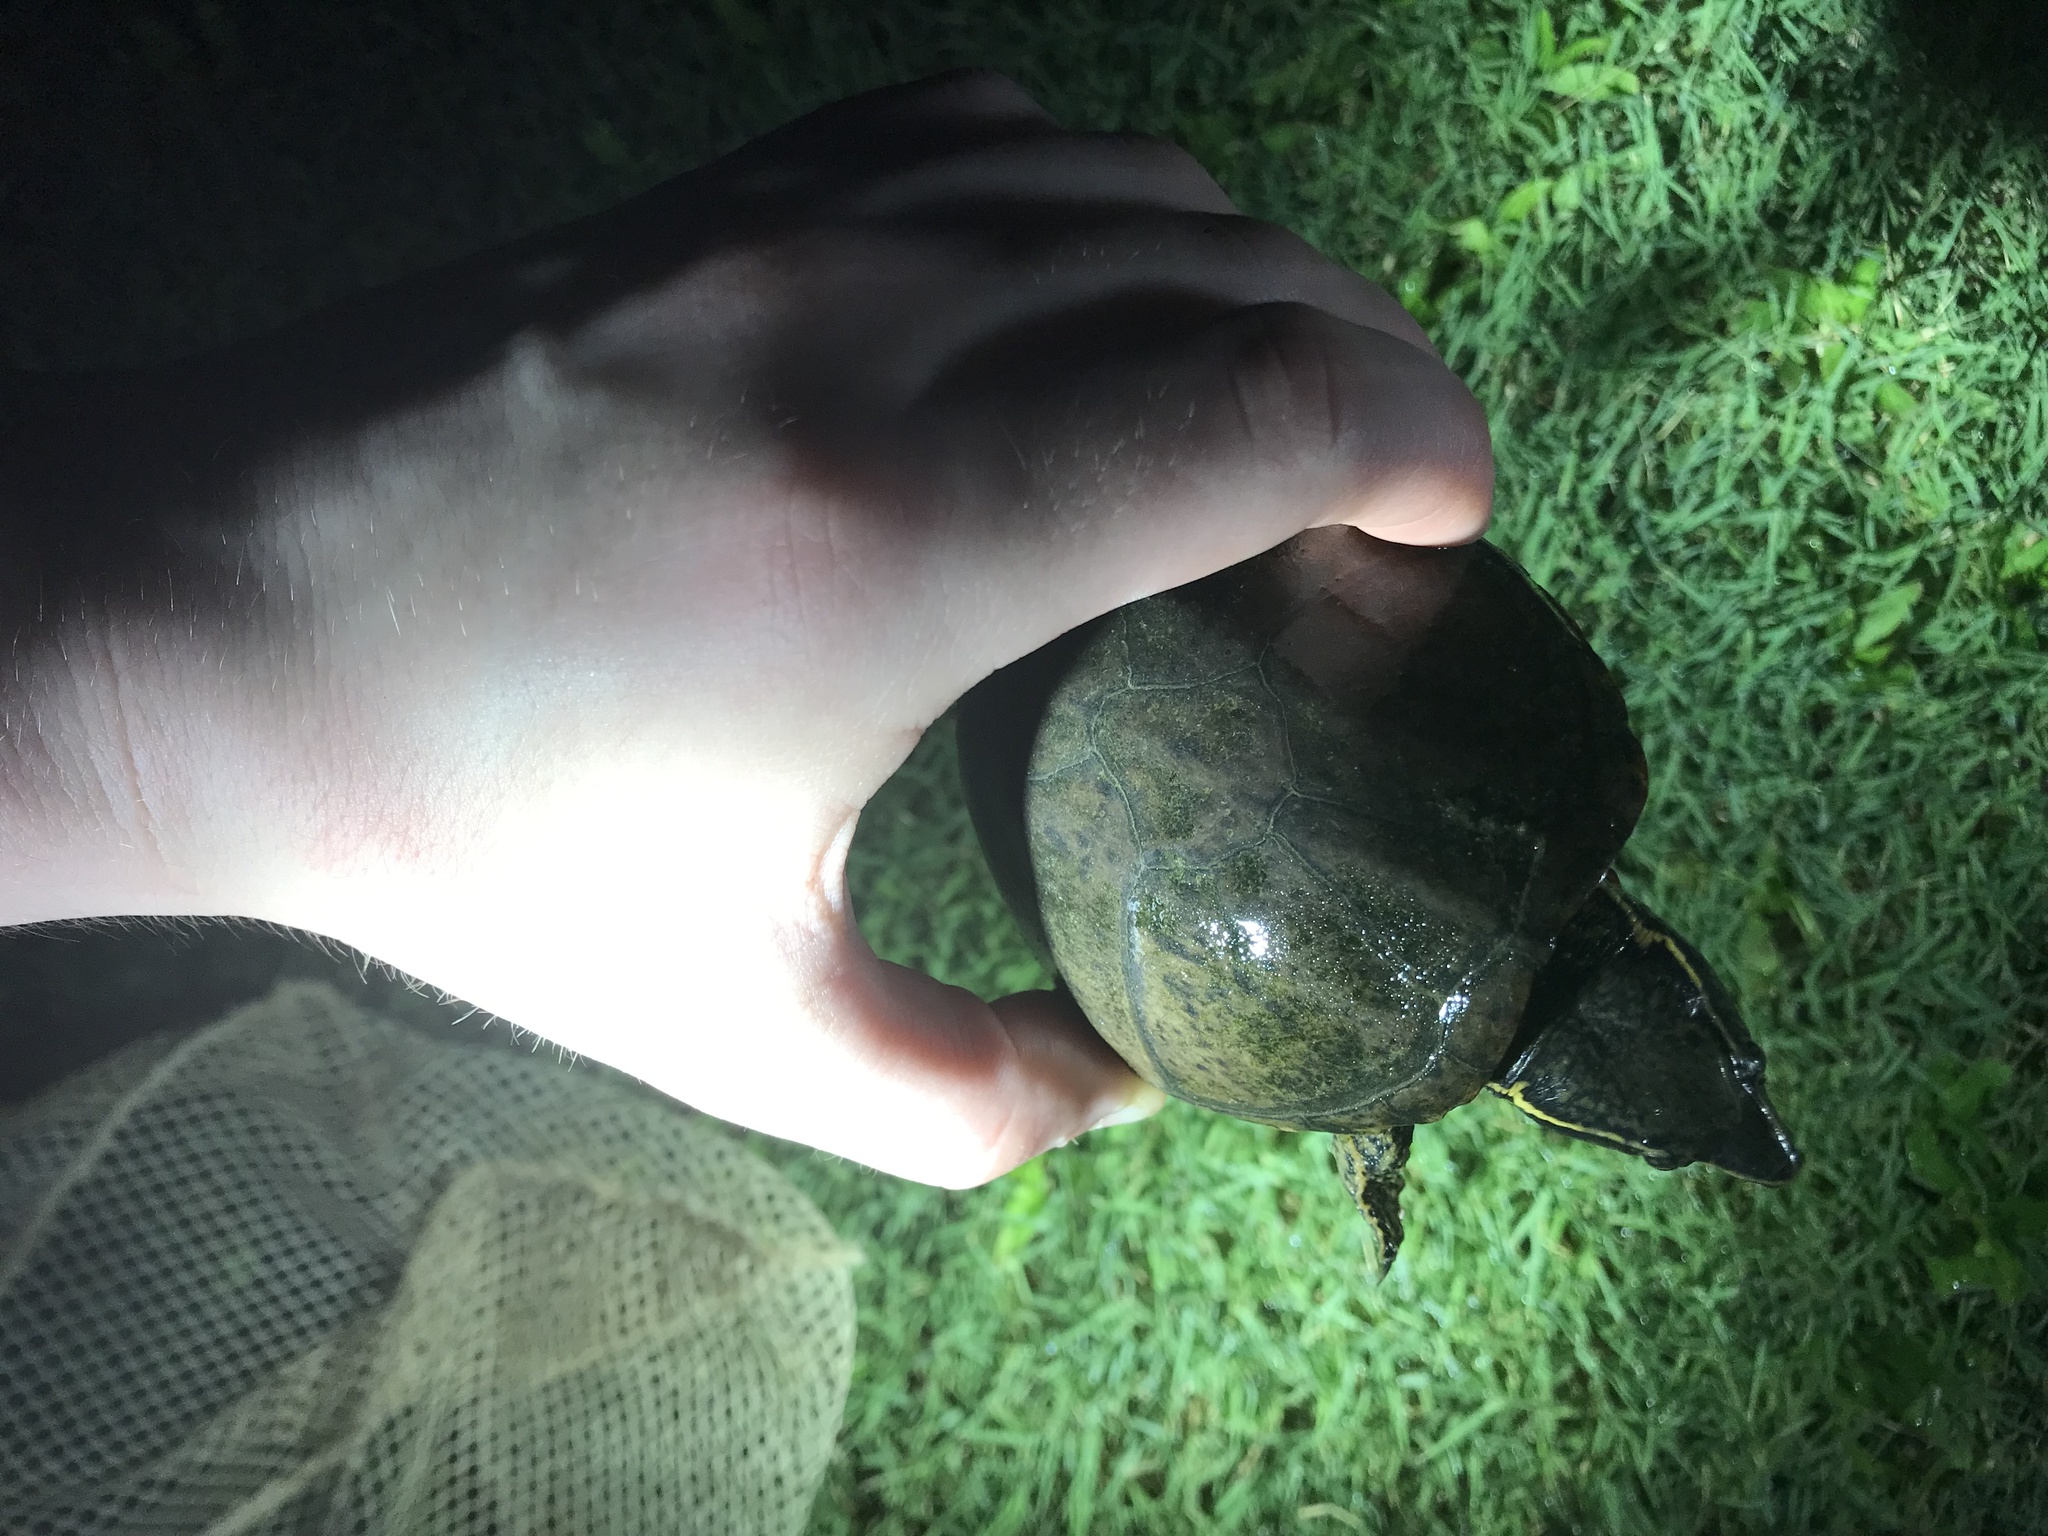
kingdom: Animalia
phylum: Chordata
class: Testudines
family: Kinosternidae
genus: Sternotherus
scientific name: Sternotherus odoratus
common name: Common musk turtle
